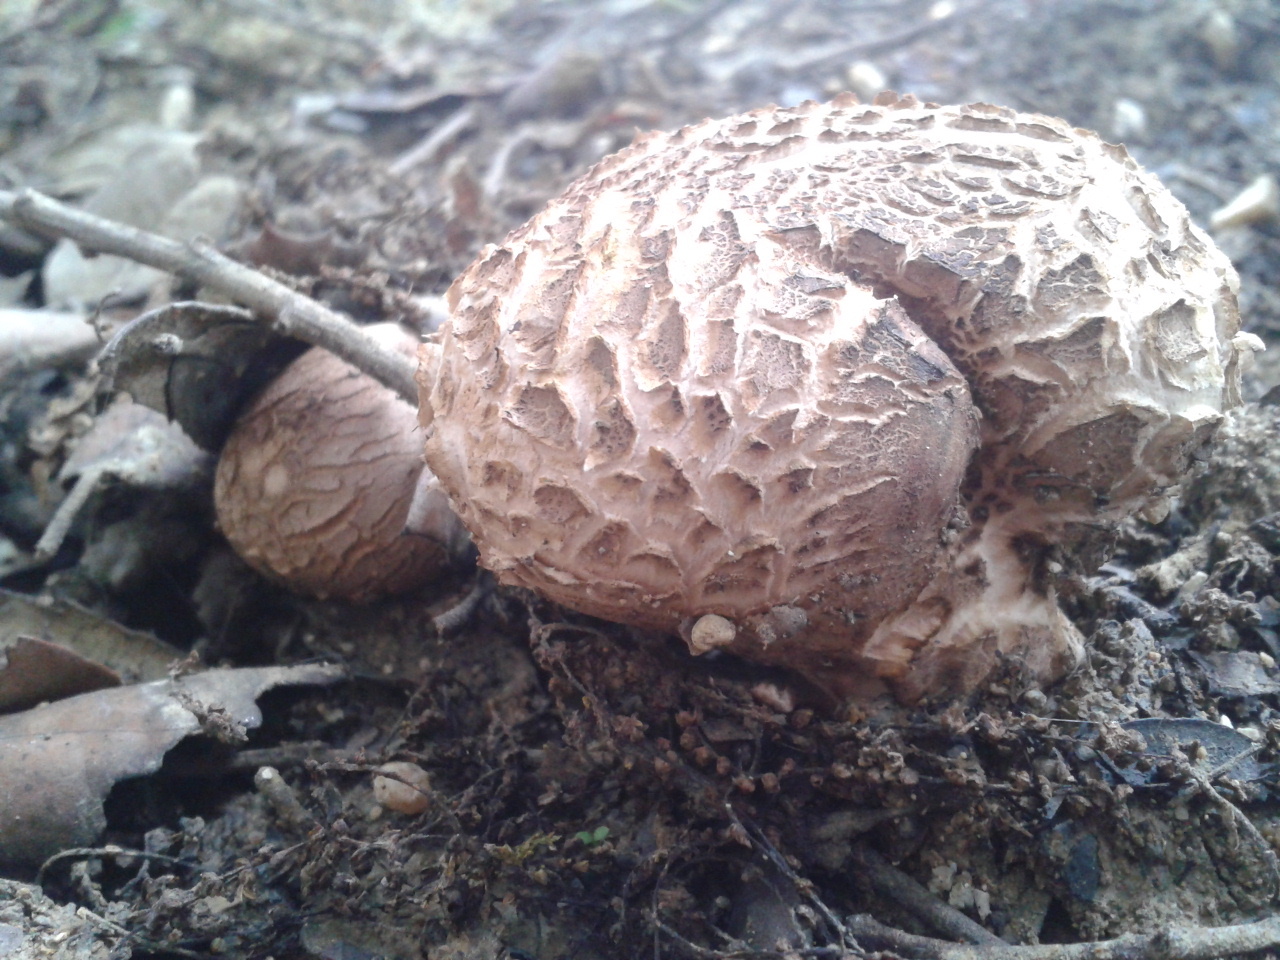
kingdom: Fungi
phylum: Basidiomycota
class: Agaricomycetes
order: Boletales
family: Sclerodermataceae
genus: Scleroderma
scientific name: Scleroderma verrucosum
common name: Scaly earthball
